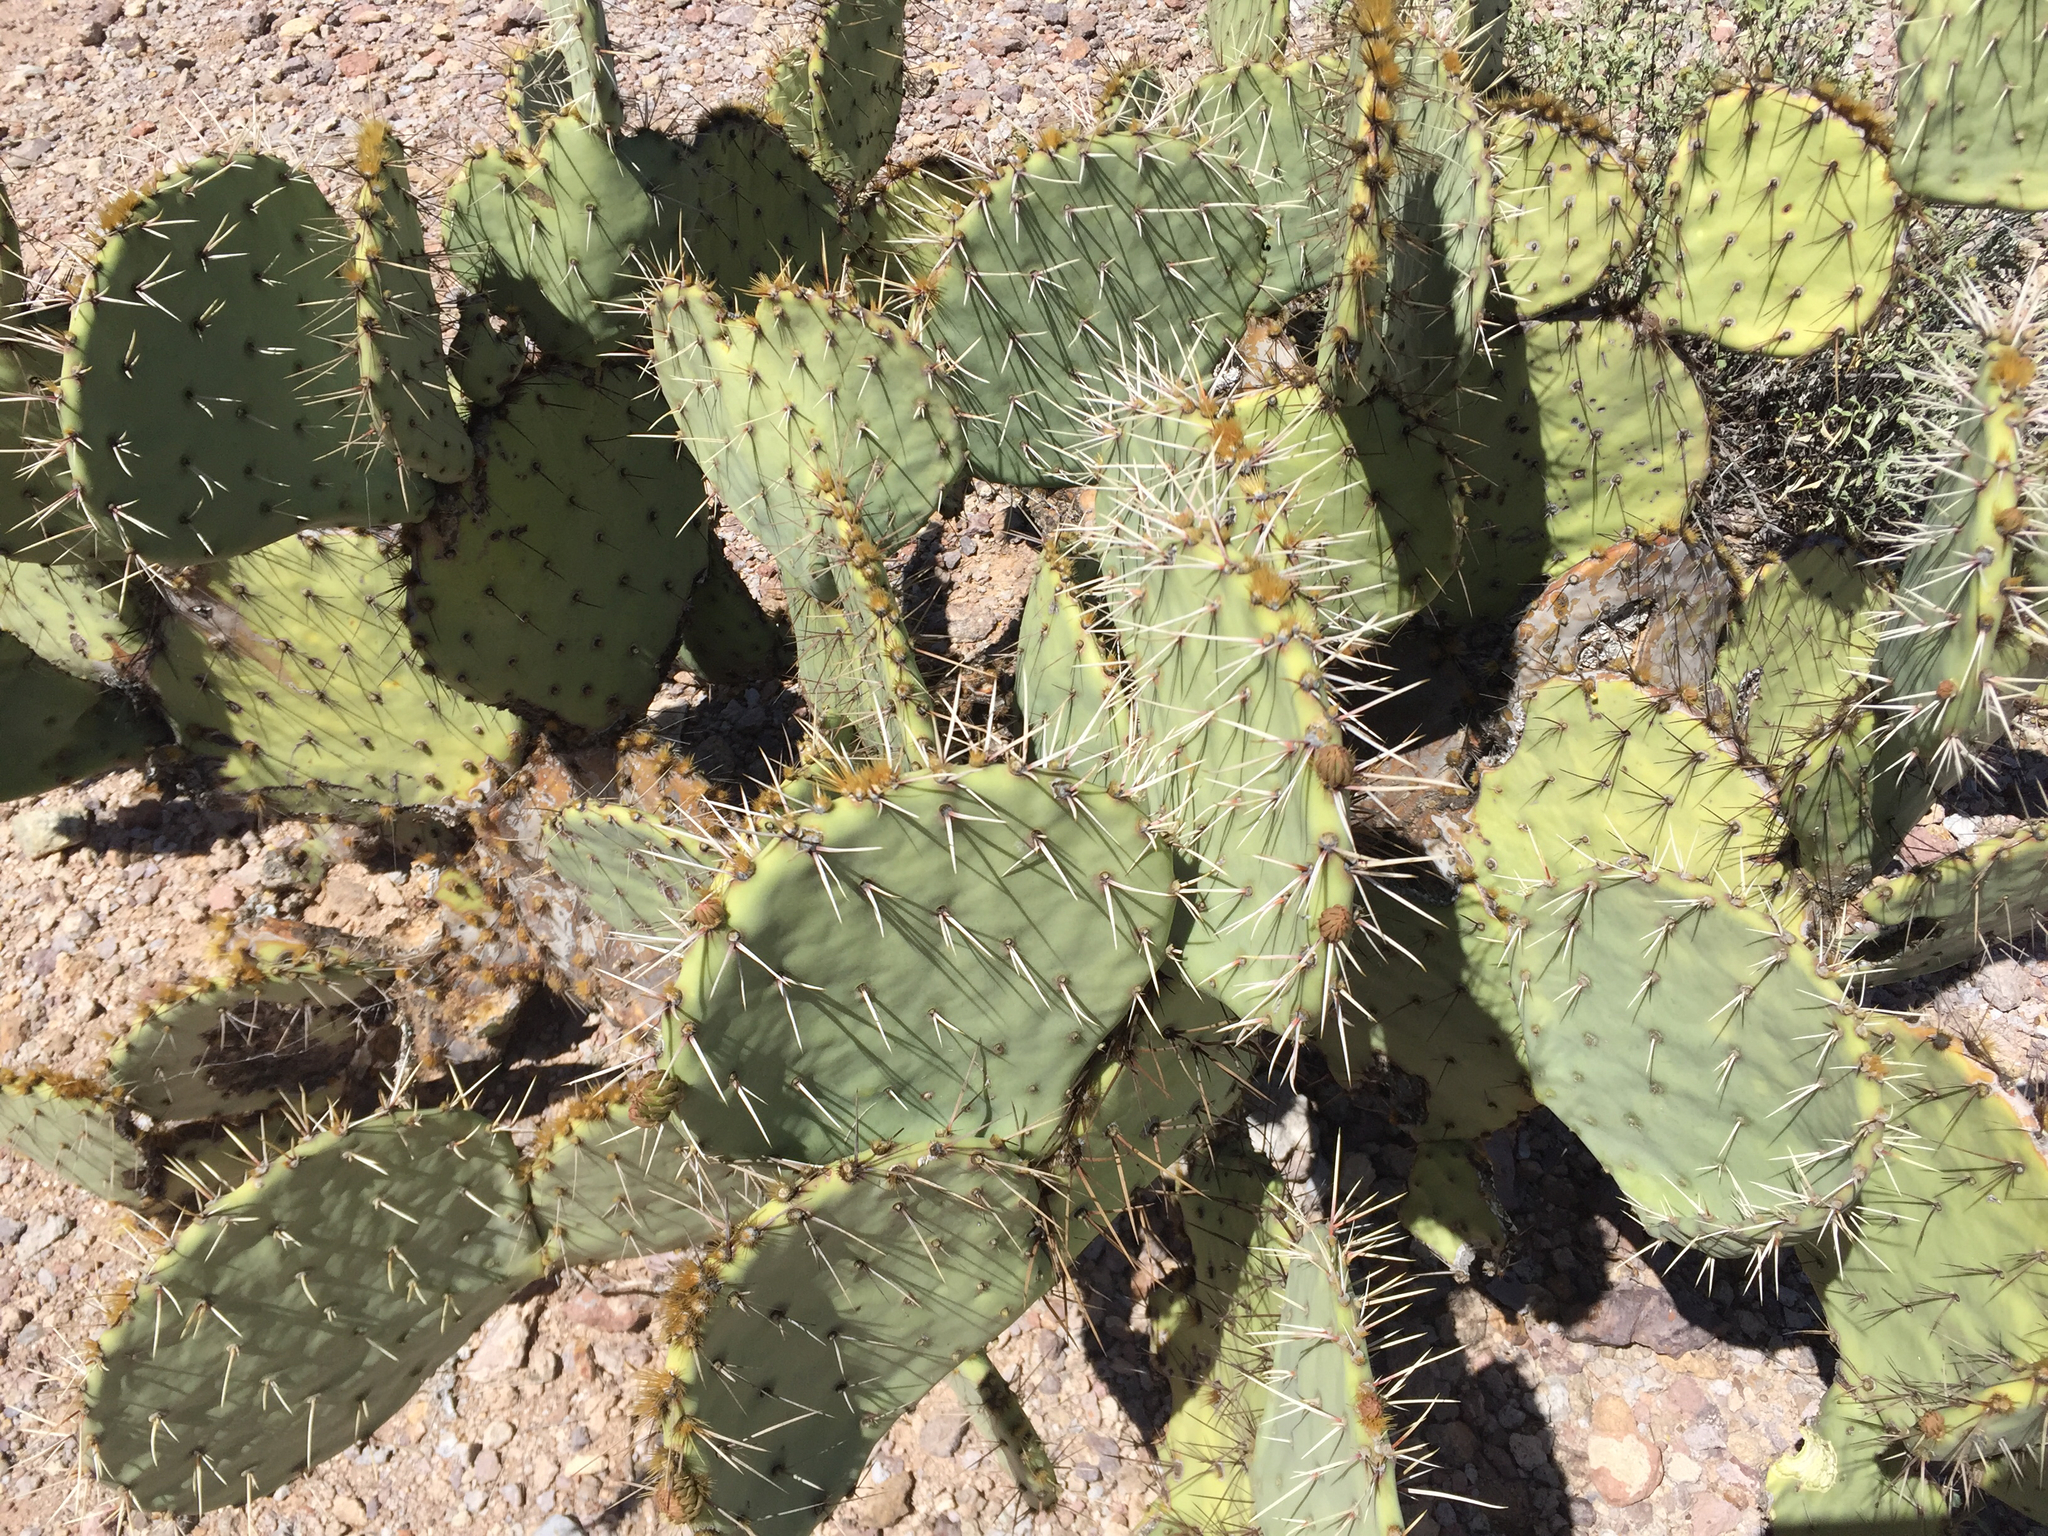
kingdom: Plantae
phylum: Tracheophyta
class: Magnoliopsida
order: Caryophyllales
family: Cactaceae
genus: Opuntia
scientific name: Opuntia engelmannii
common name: Cactus-apple
